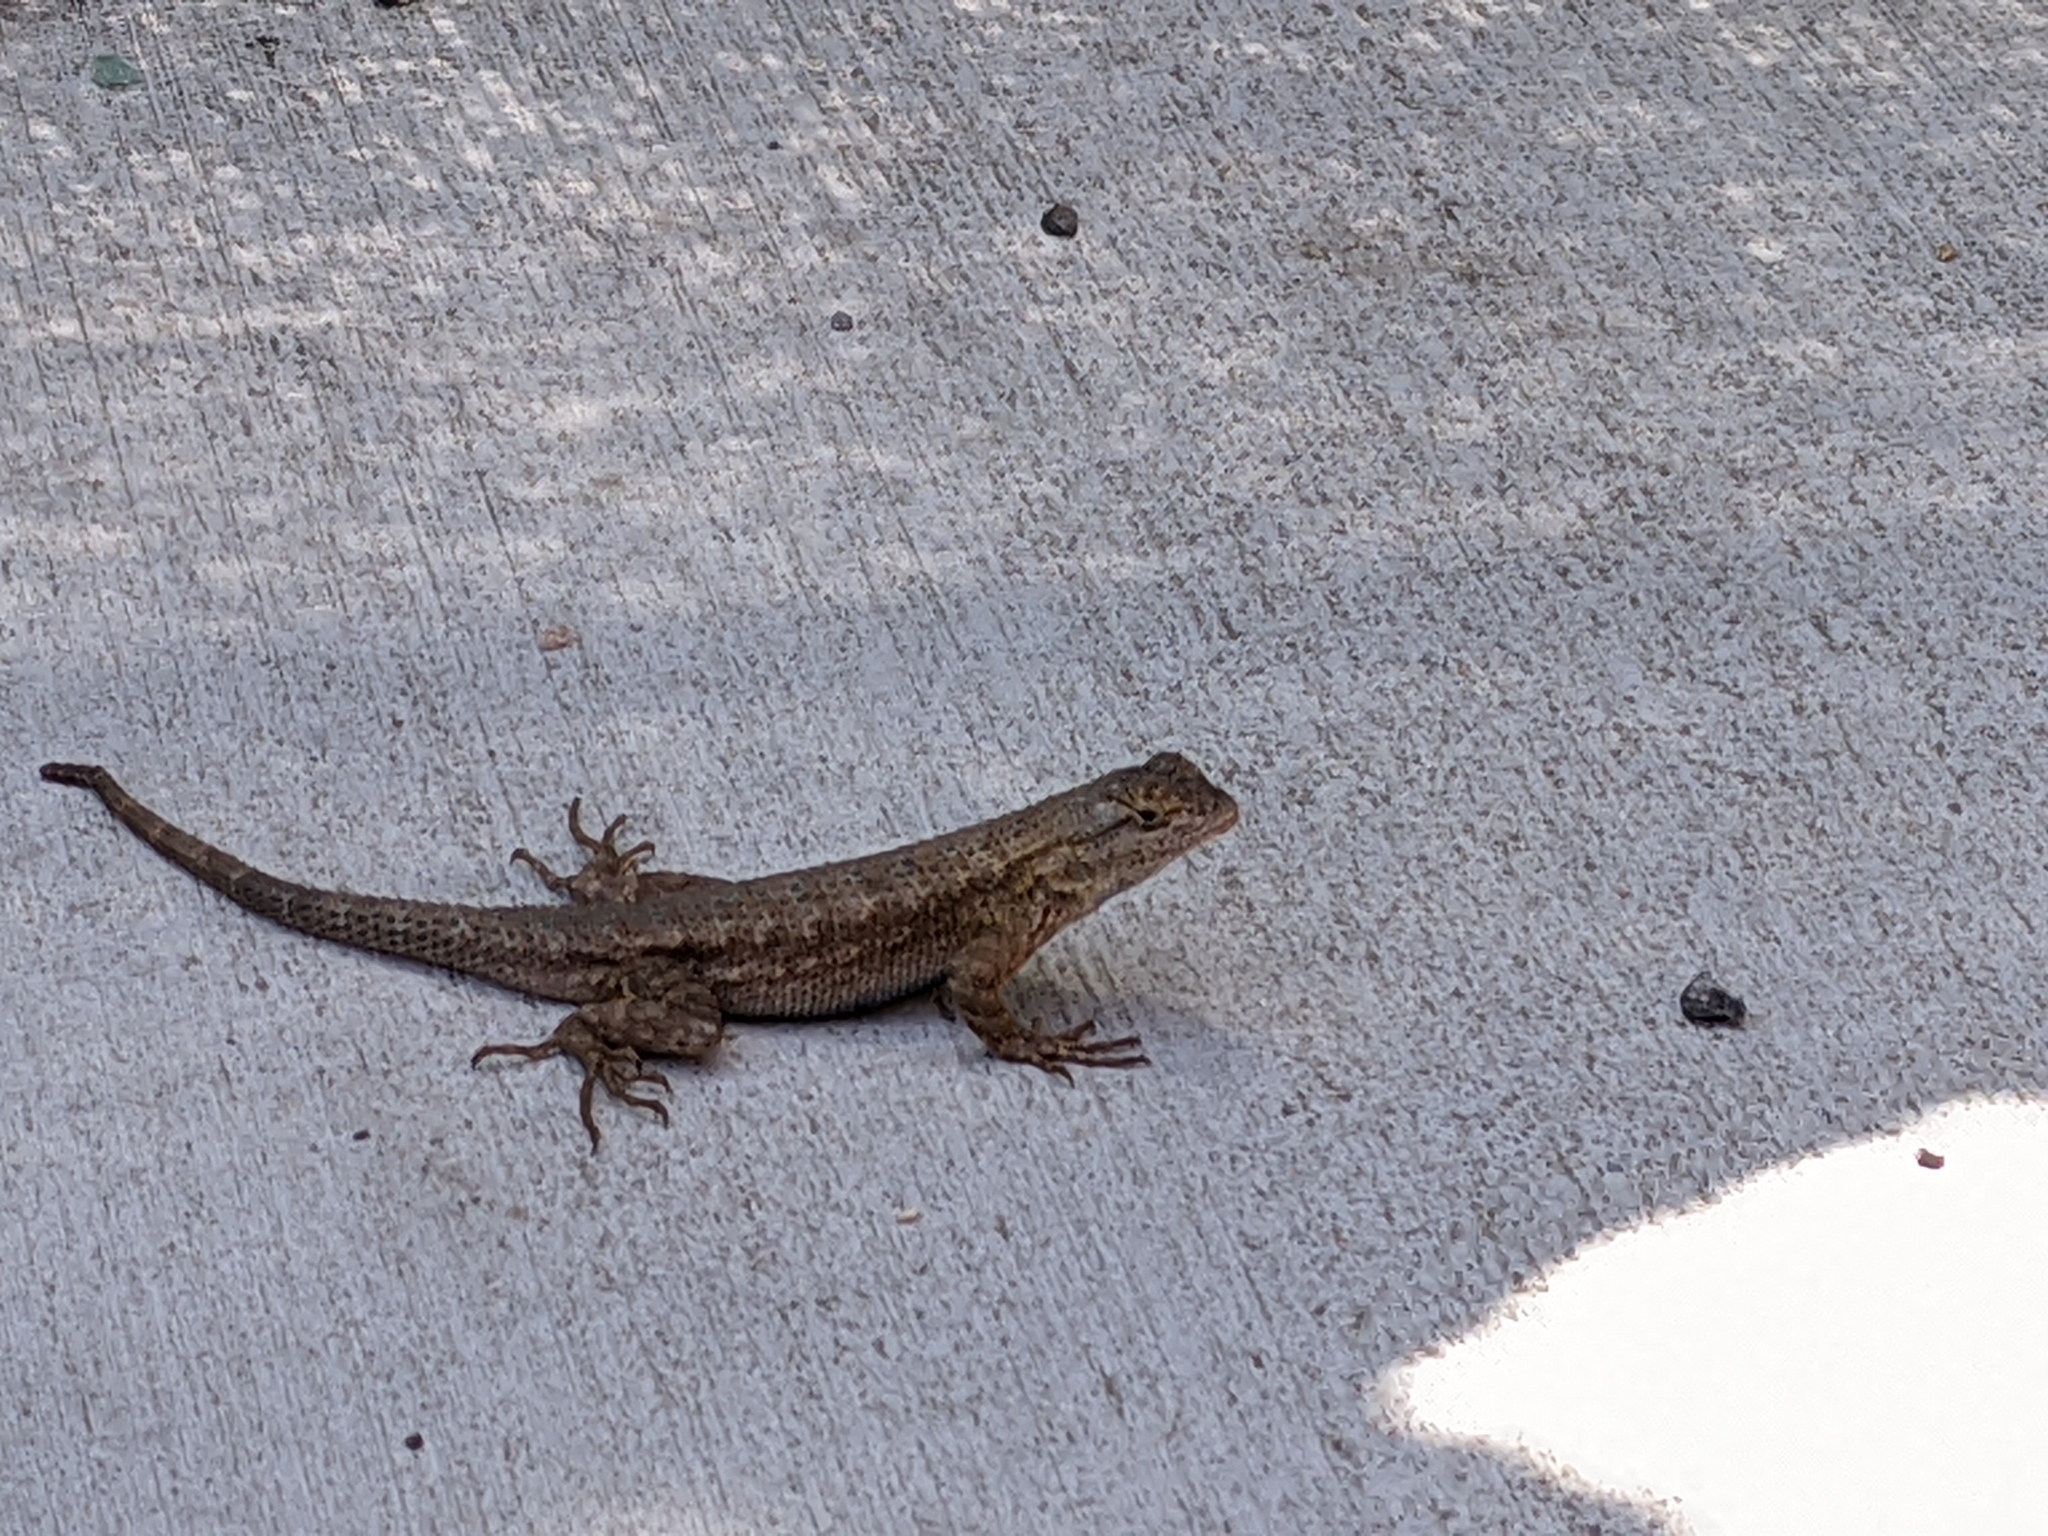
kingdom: Animalia
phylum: Chordata
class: Squamata
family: Phrynosomatidae
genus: Sceloporus
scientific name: Sceloporus occidentalis
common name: Western fence lizard
